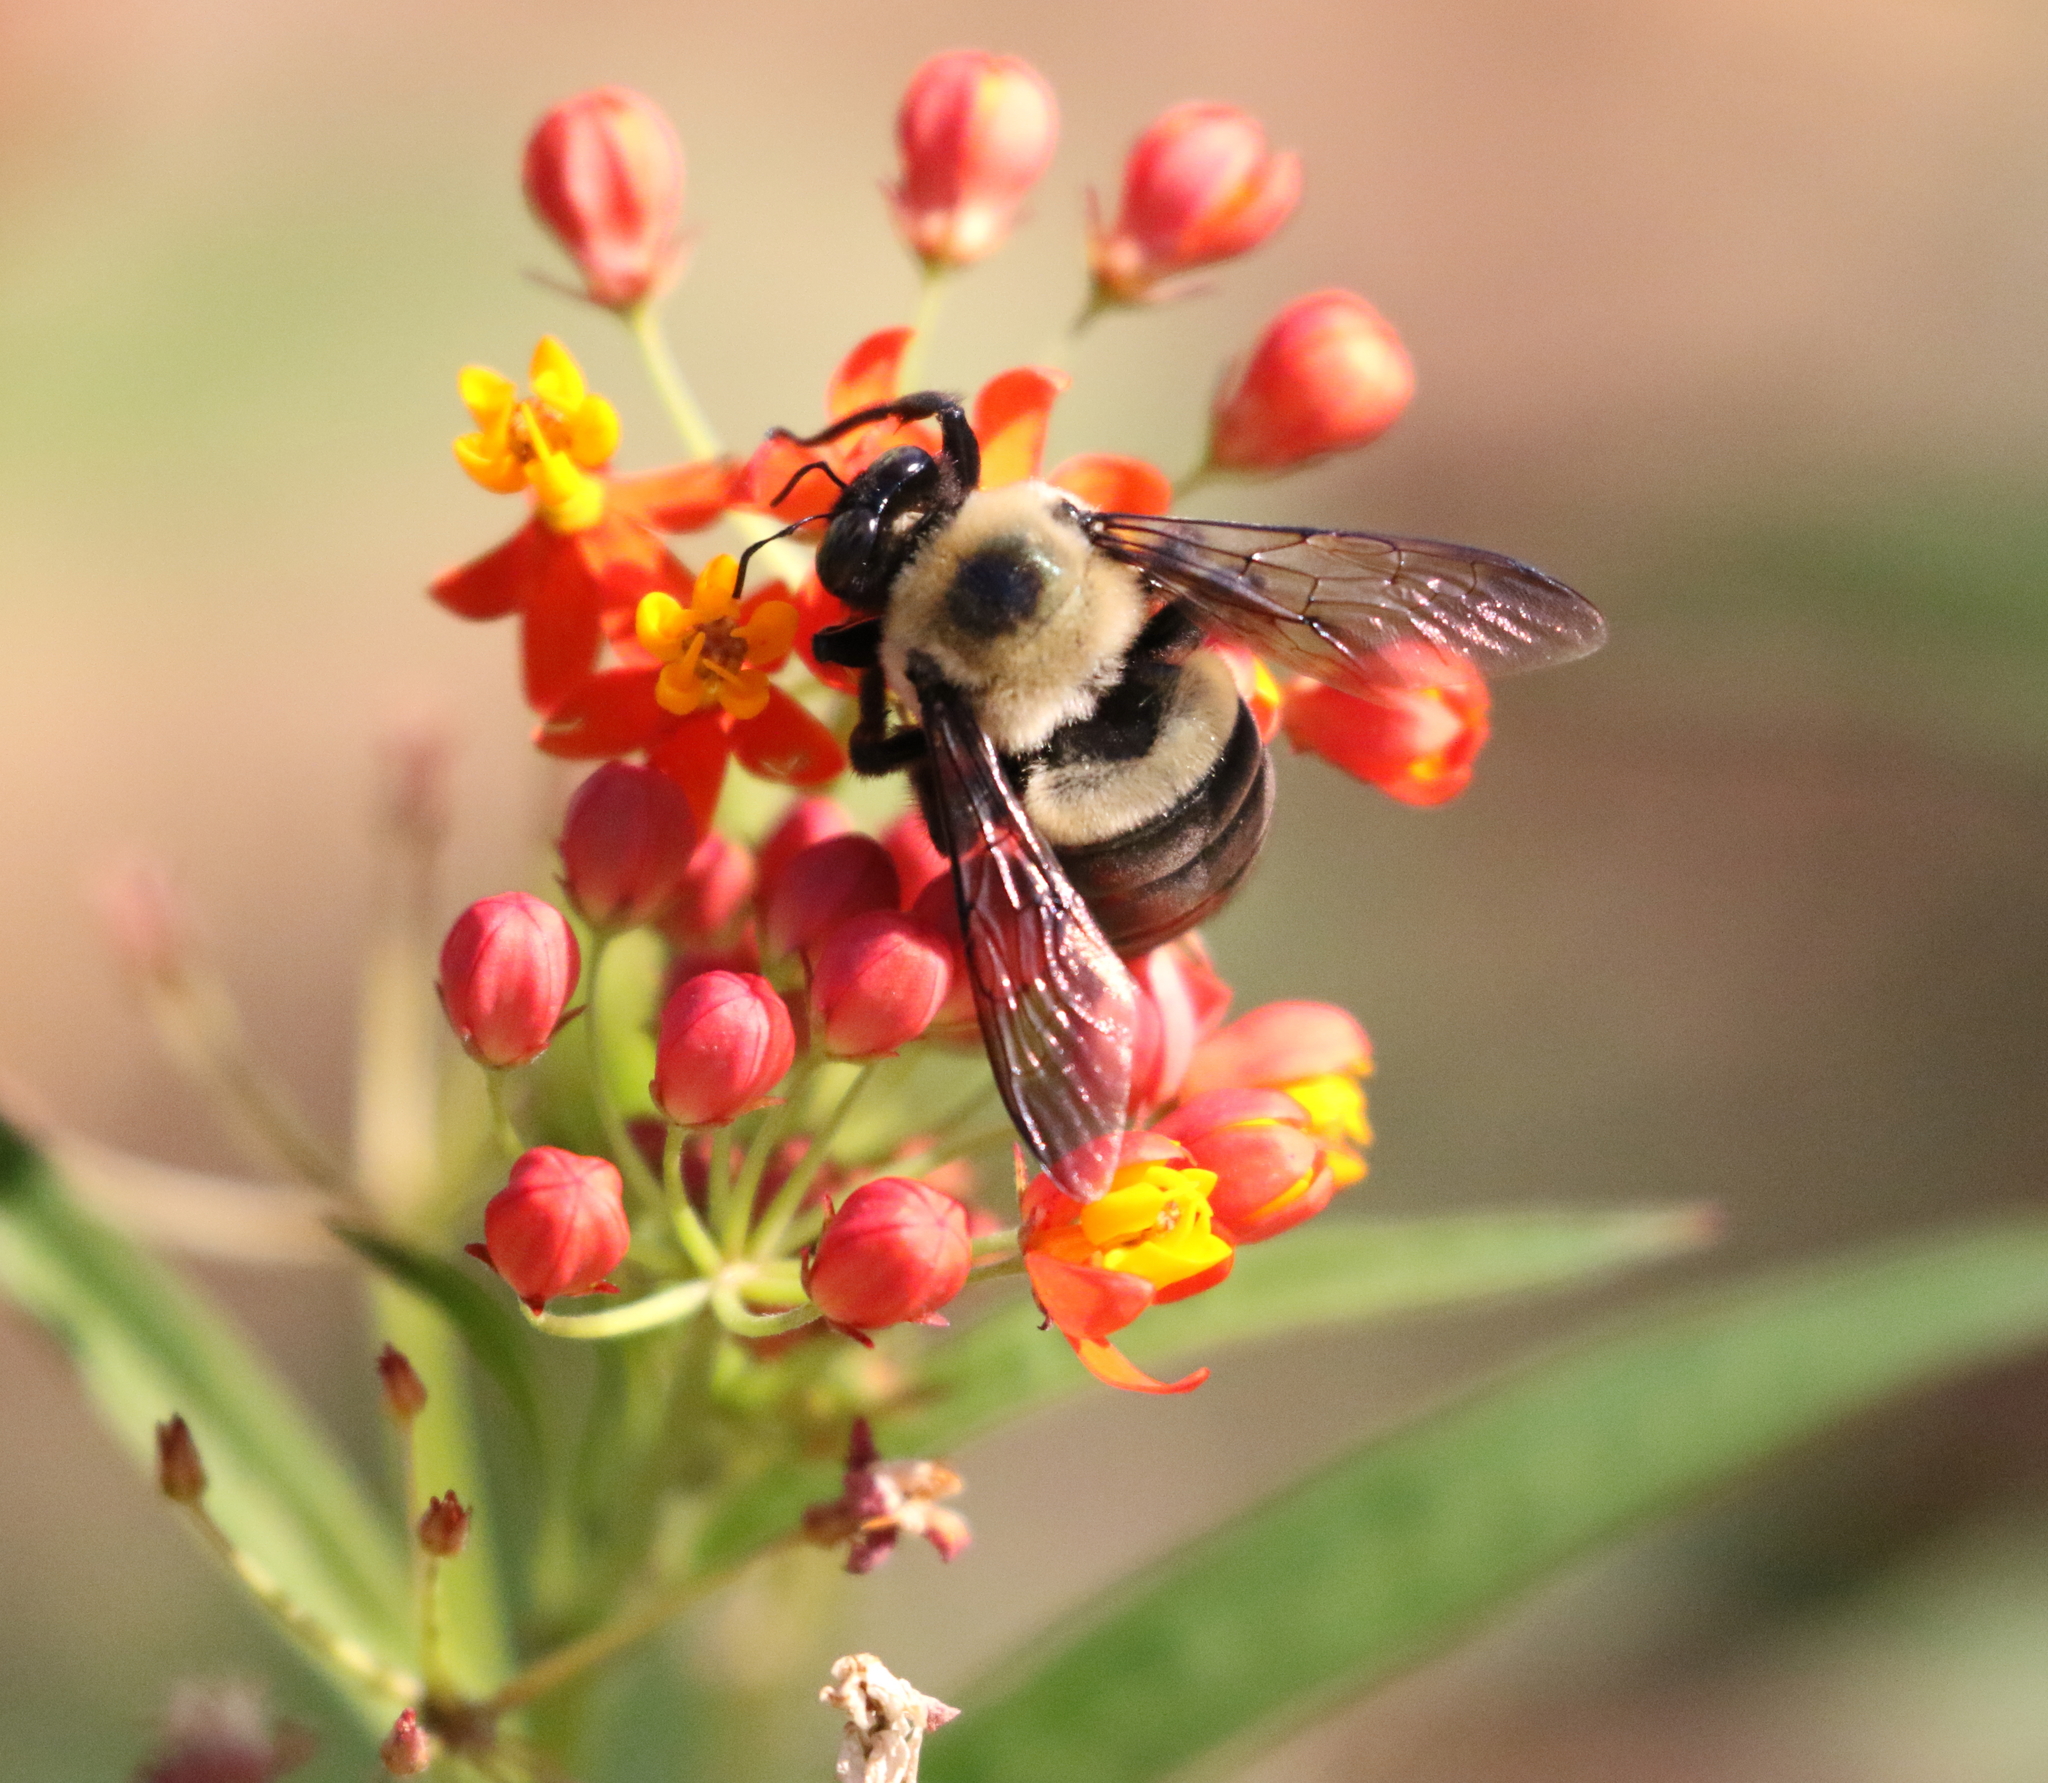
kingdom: Animalia
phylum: Arthropoda
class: Insecta
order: Hymenoptera
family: Apidae
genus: Xylocopa
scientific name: Xylocopa virginica
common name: Carpenter bee
